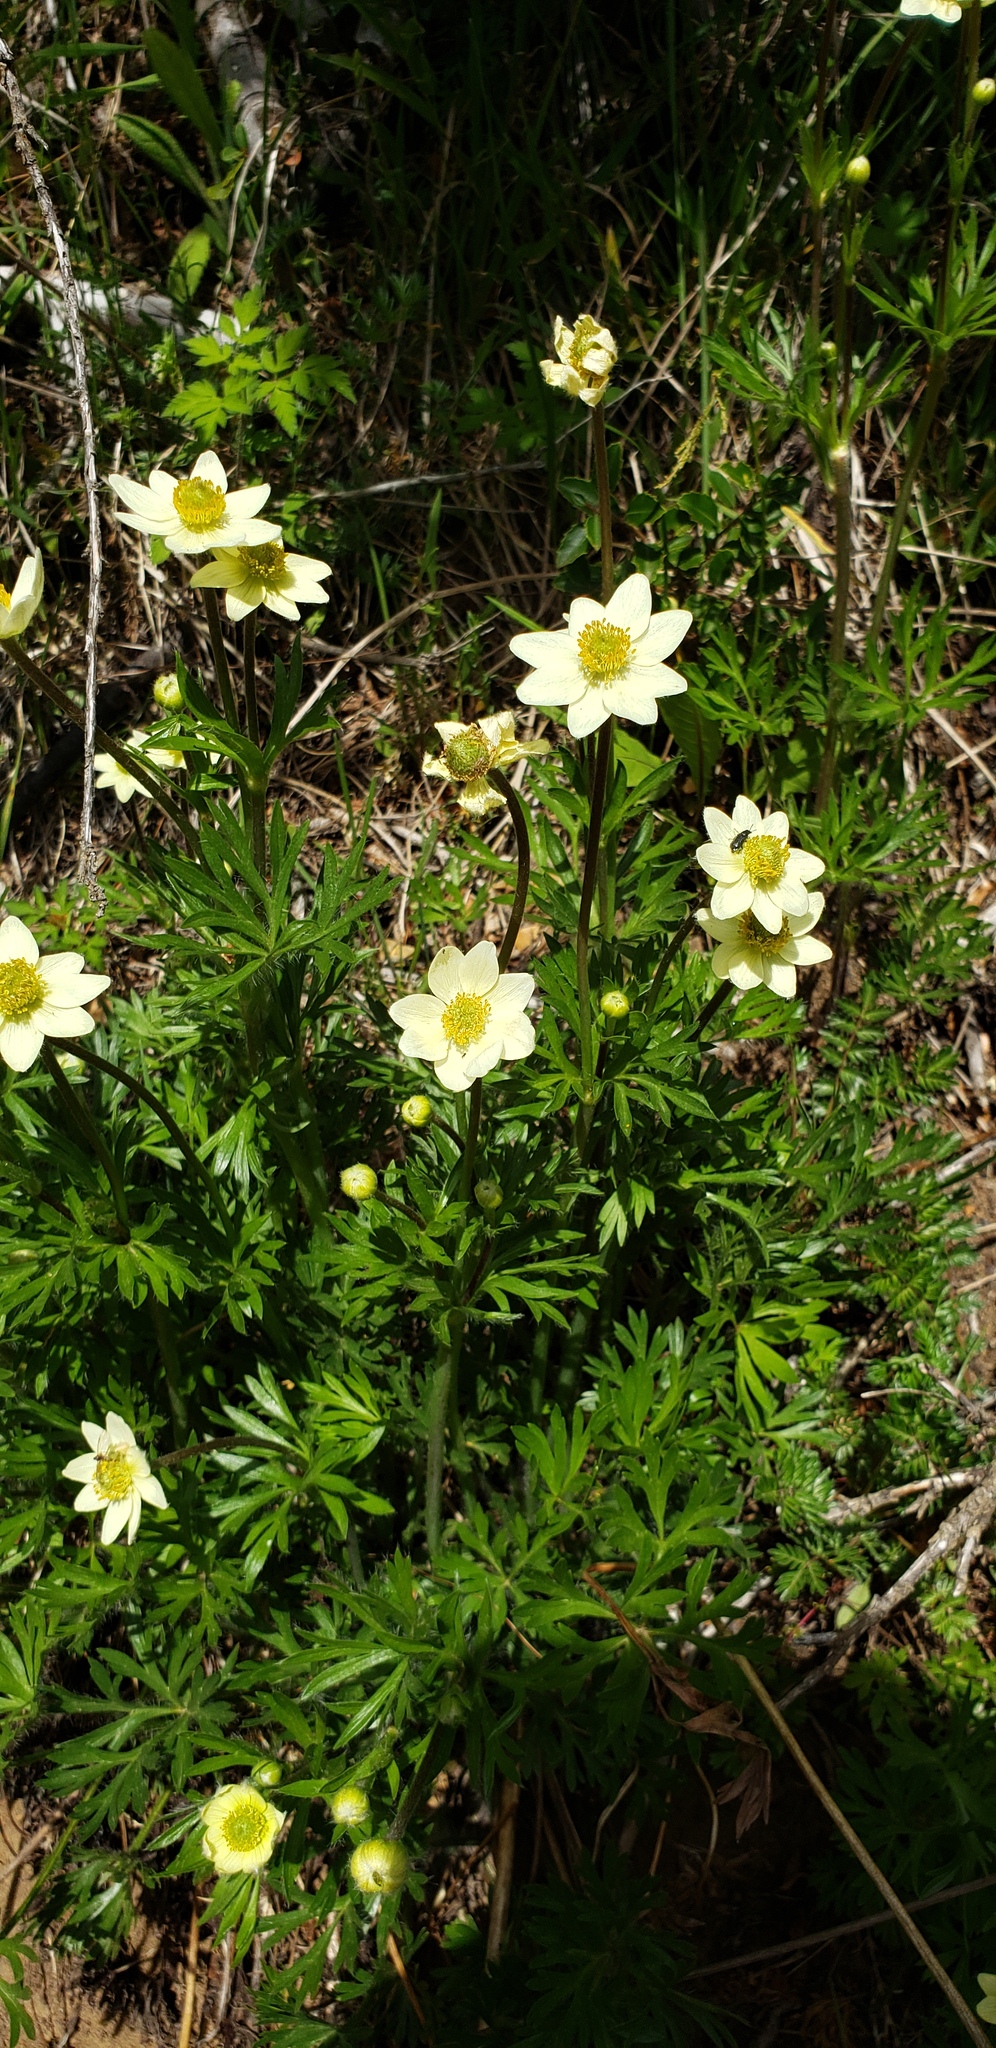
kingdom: Plantae
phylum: Tracheophyta
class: Magnoliopsida
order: Ranunculales
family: Ranunculaceae
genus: Anemone
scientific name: Anemone multifida
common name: Bird's-foot anemone
